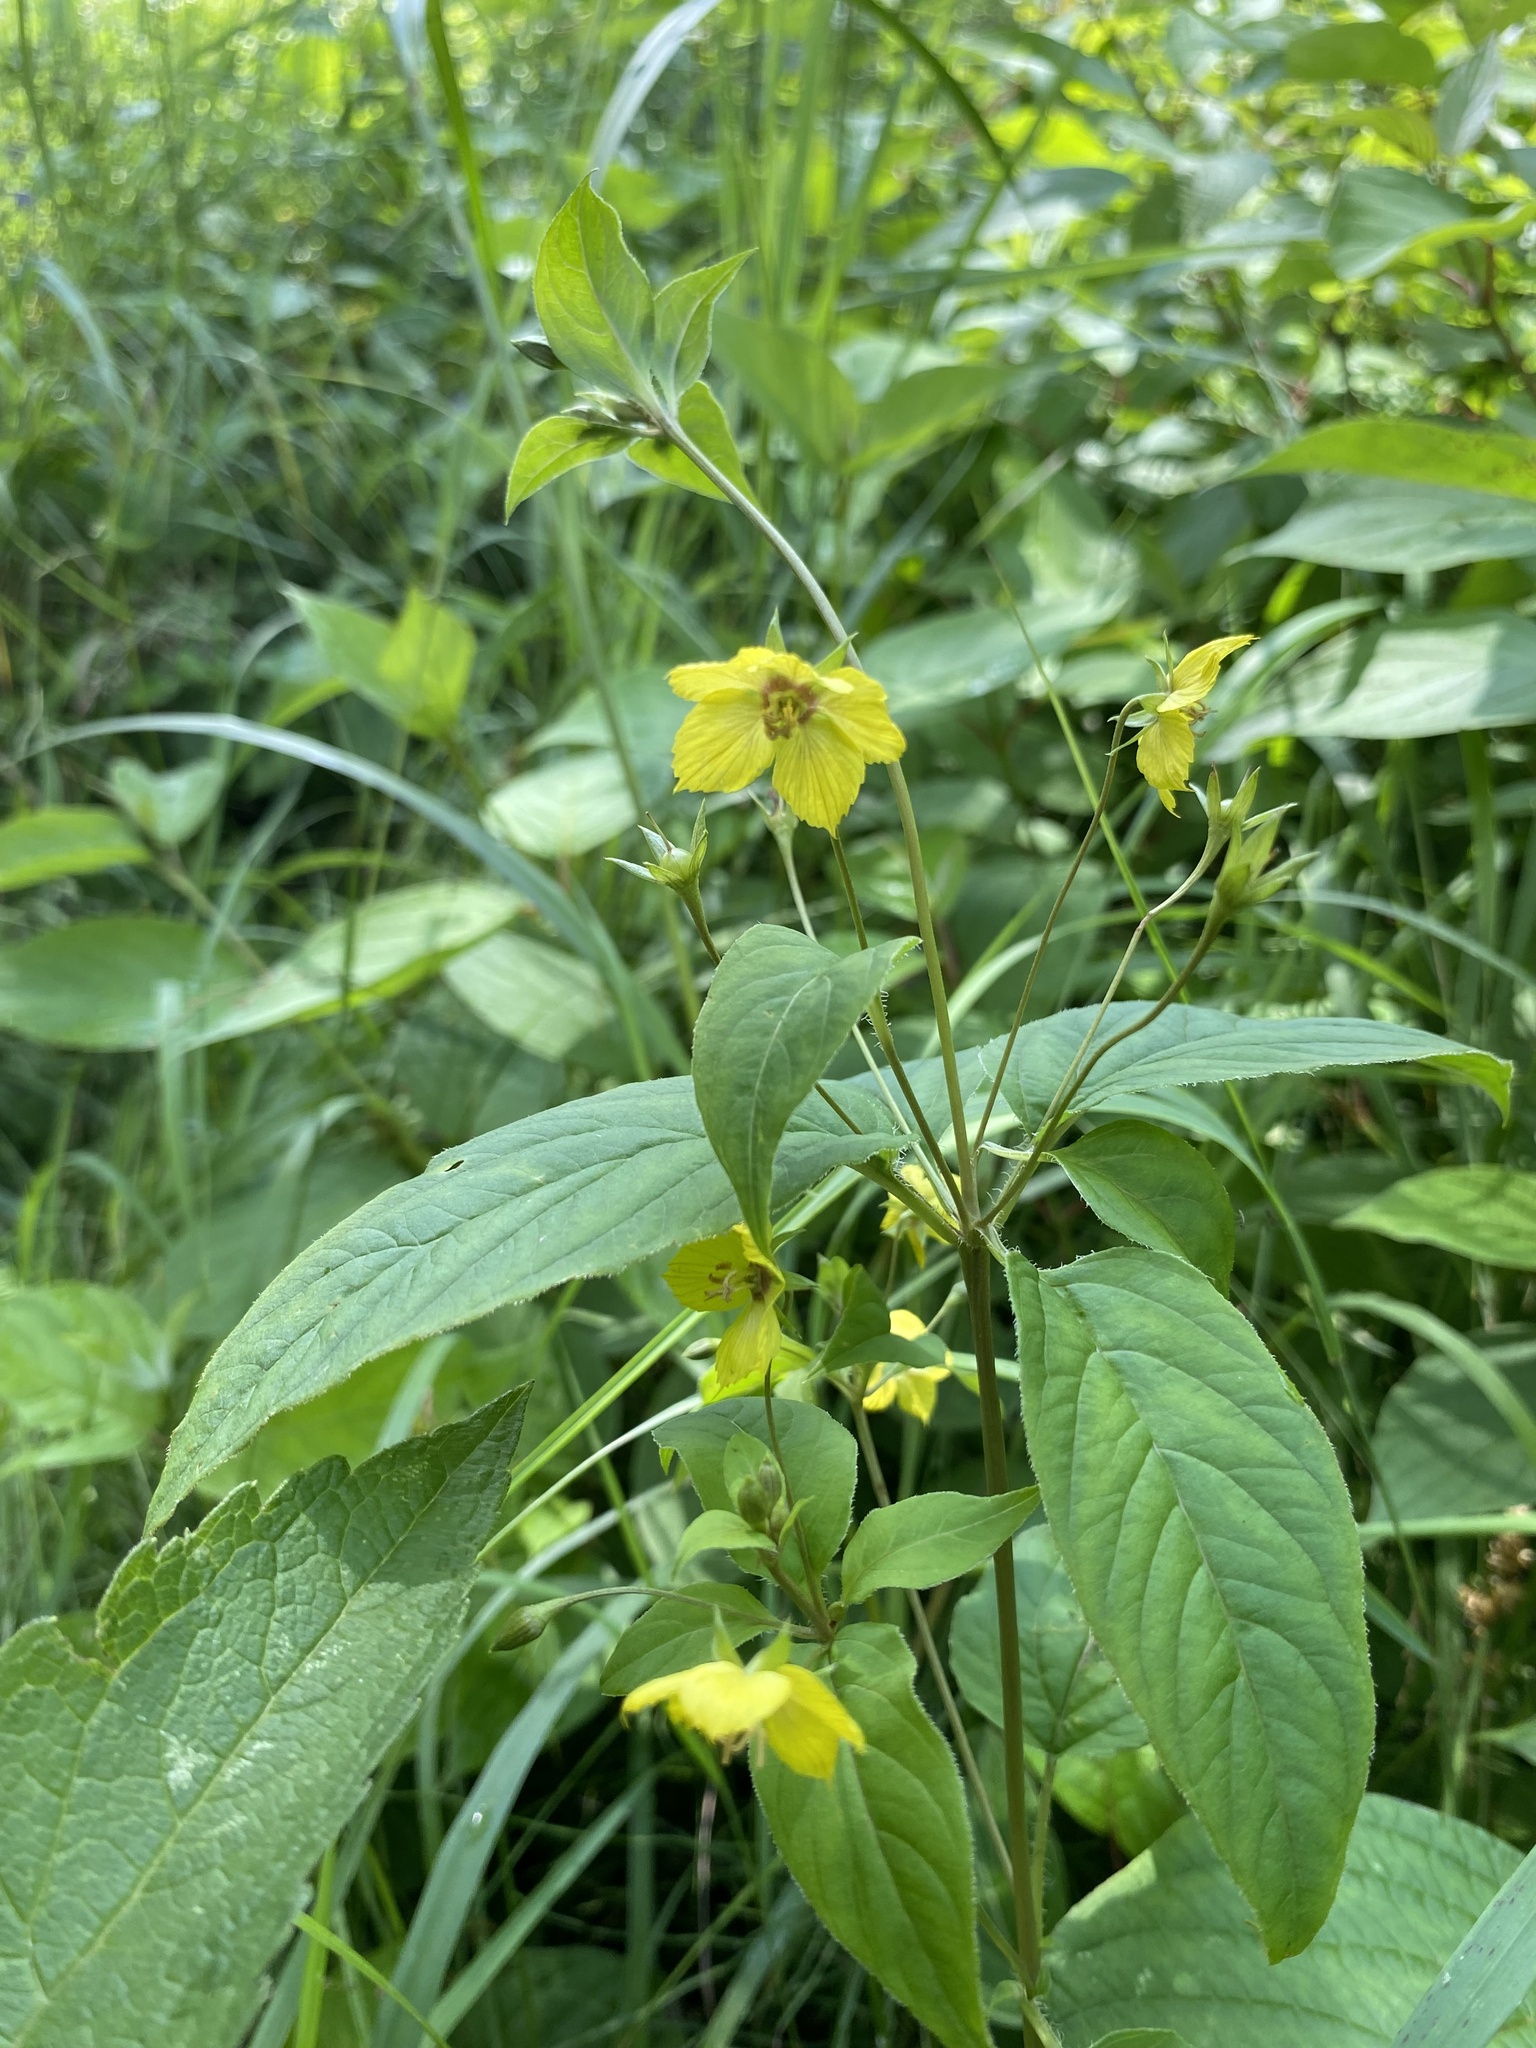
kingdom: Plantae
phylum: Tracheophyta
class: Magnoliopsida
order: Ericales
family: Primulaceae
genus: Lysimachia
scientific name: Lysimachia ciliata
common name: Fringed loosestrife
